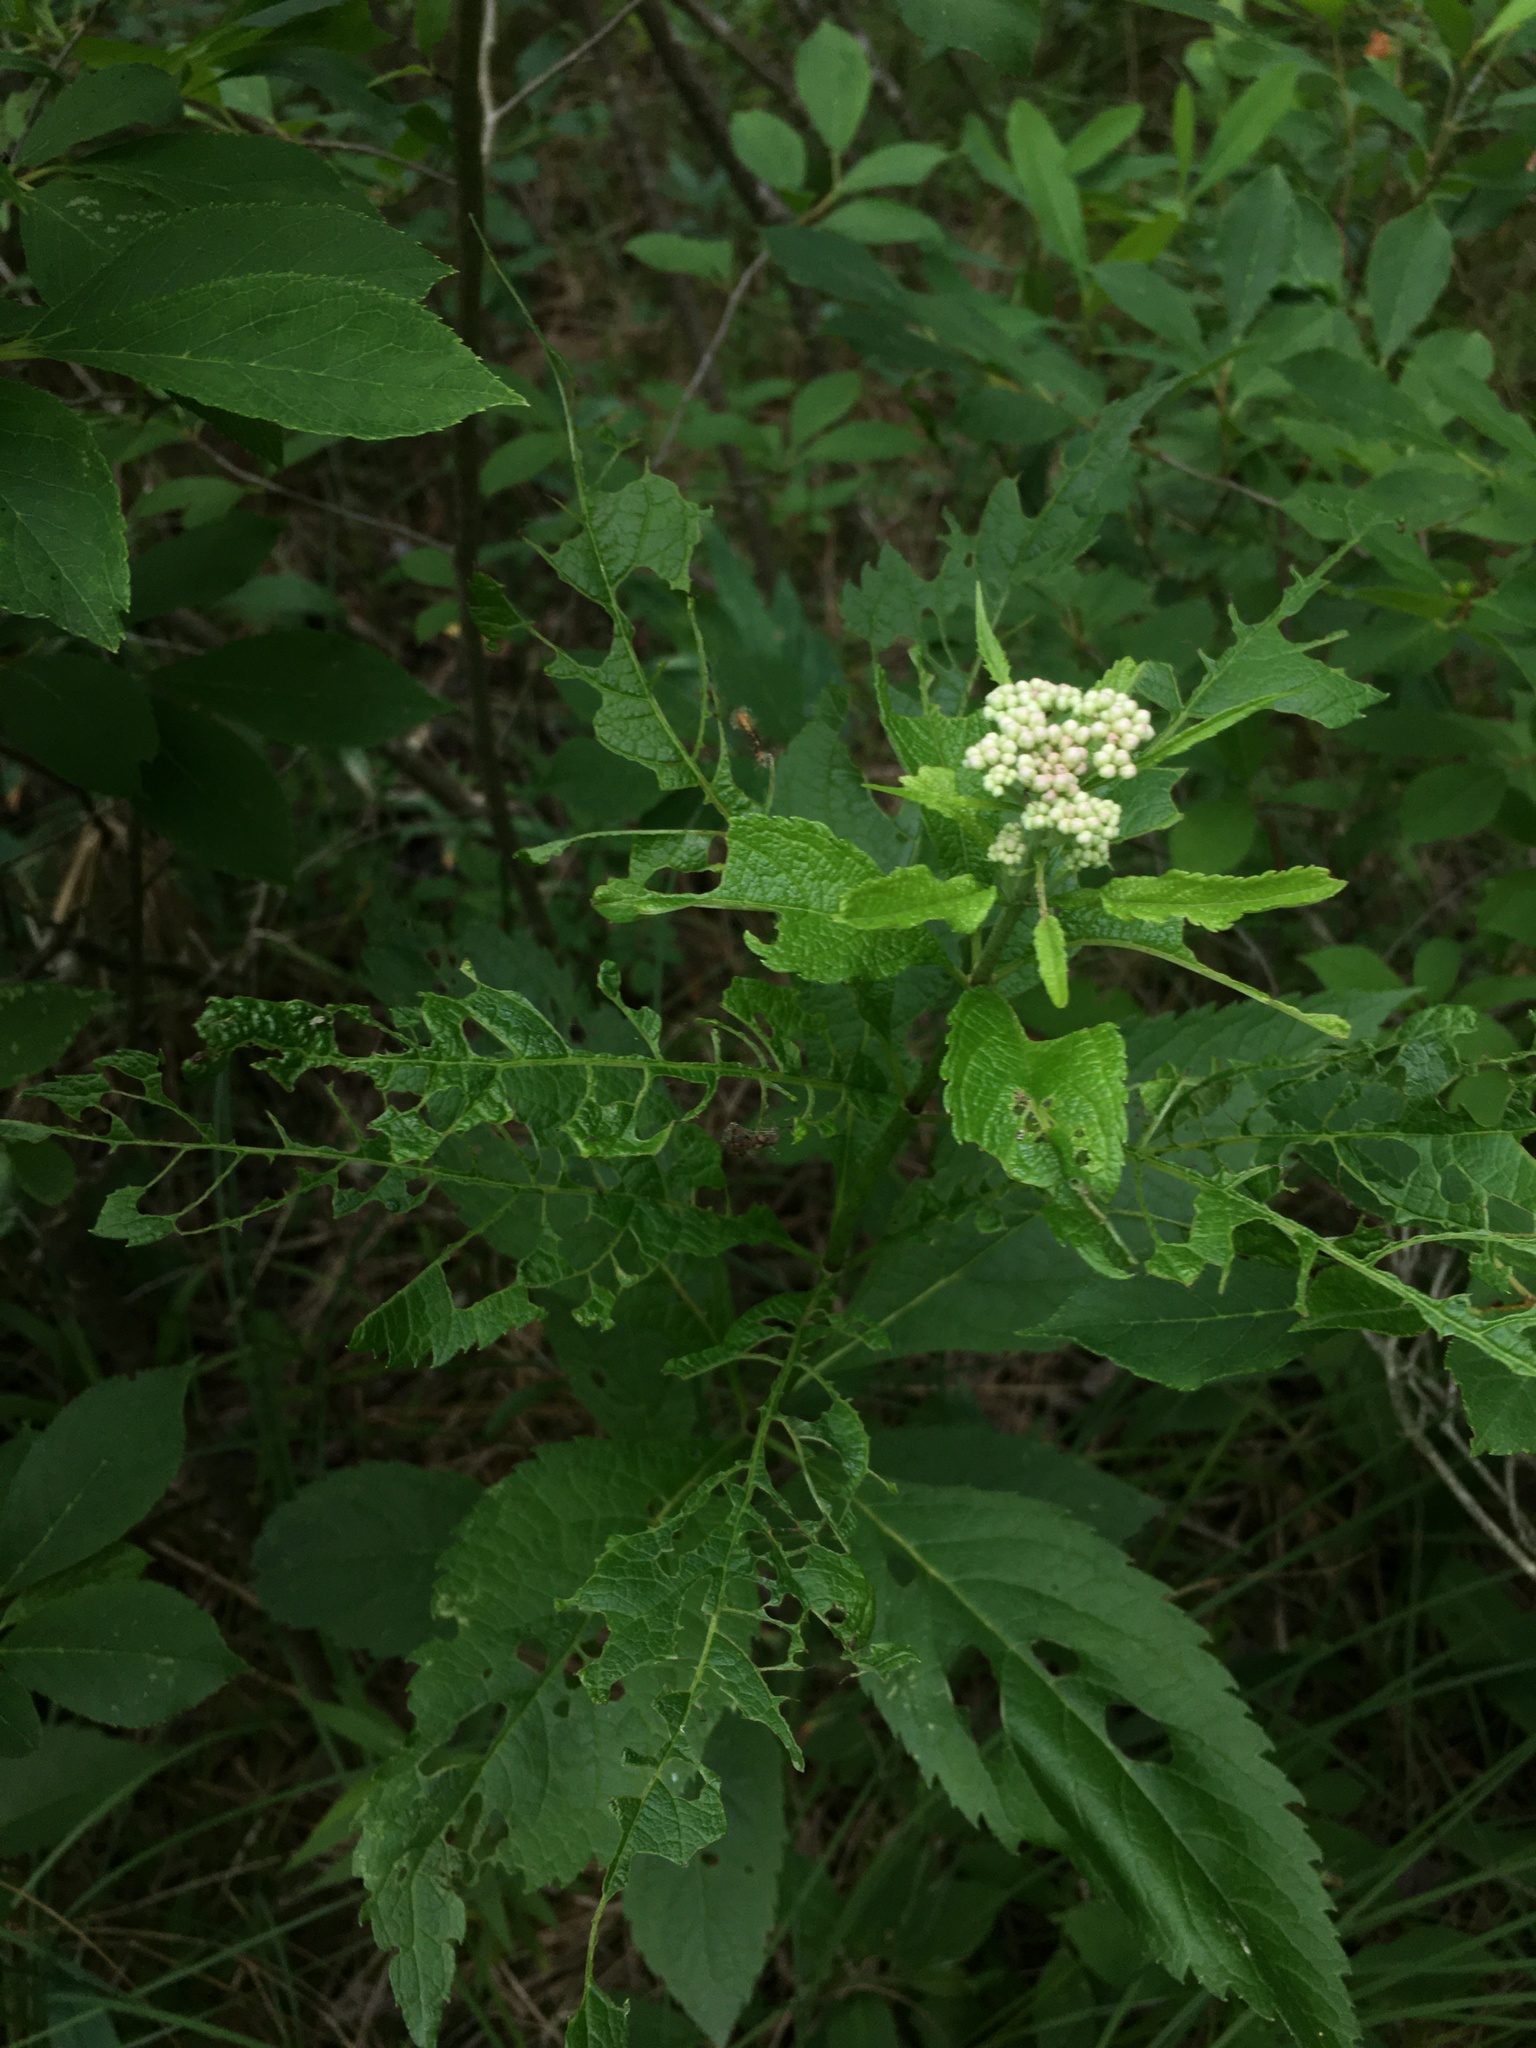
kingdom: Plantae
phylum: Tracheophyta
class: Magnoliopsida
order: Asterales
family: Asteraceae
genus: Eutrochium
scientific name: Eutrochium maculatum
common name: Spotted joe pye weed
